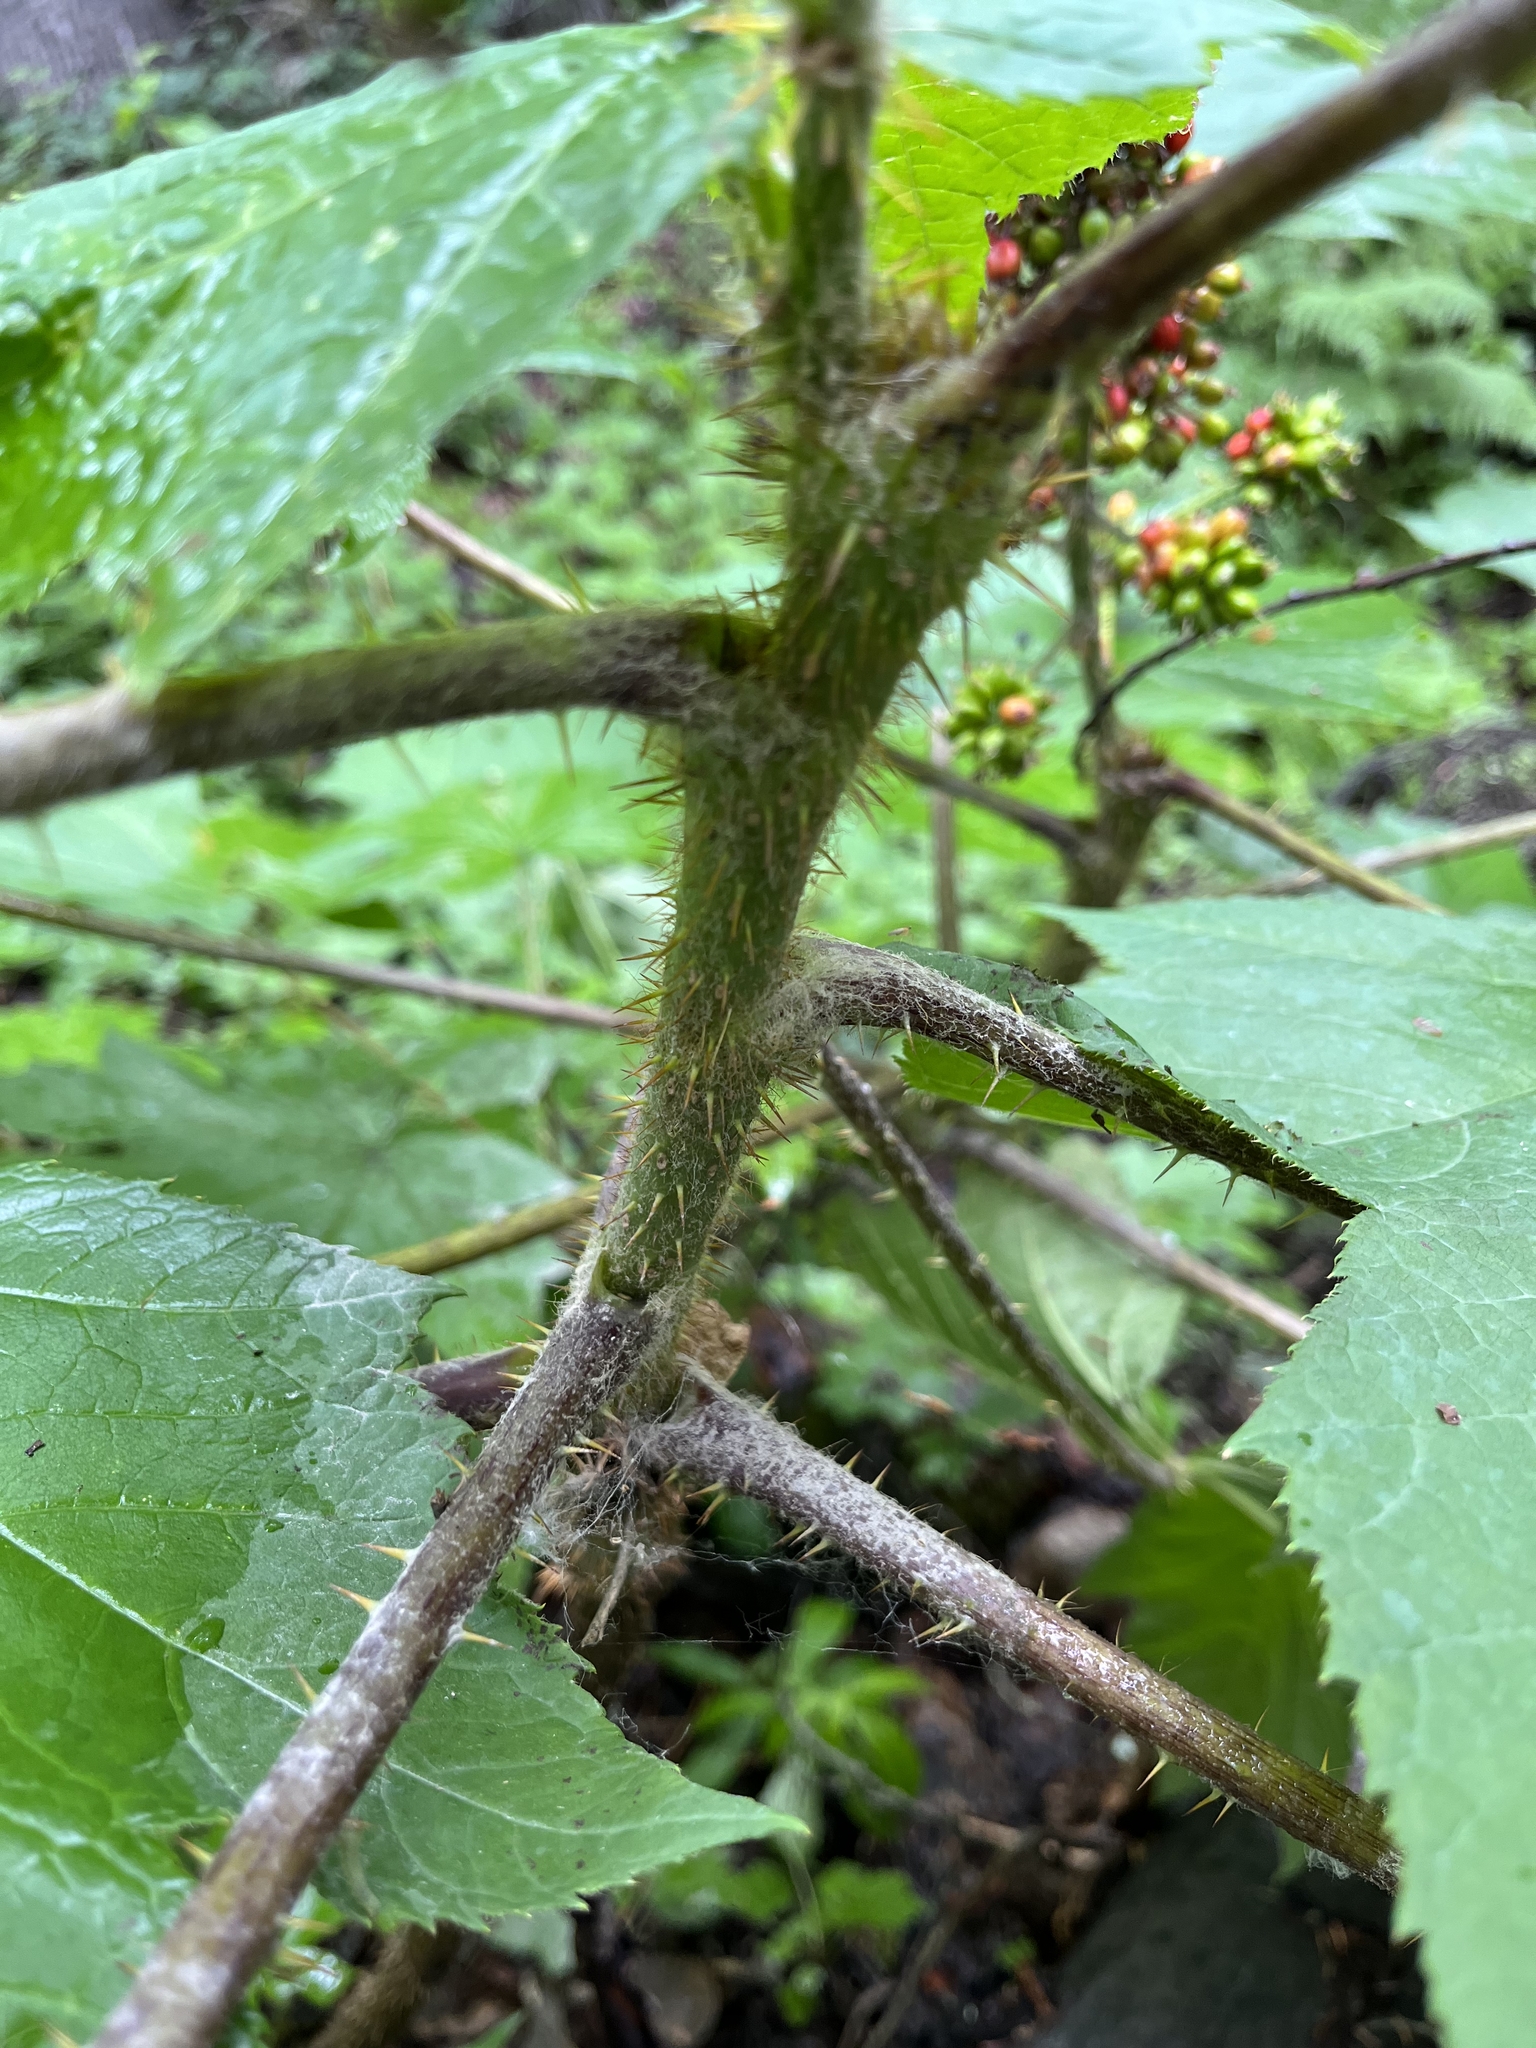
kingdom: Plantae
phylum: Tracheophyta
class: Magnoliopsida
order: Apiales
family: Araliaceae
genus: Oplopanax
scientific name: Oplopanax horridus
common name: Devil's walking-stick
